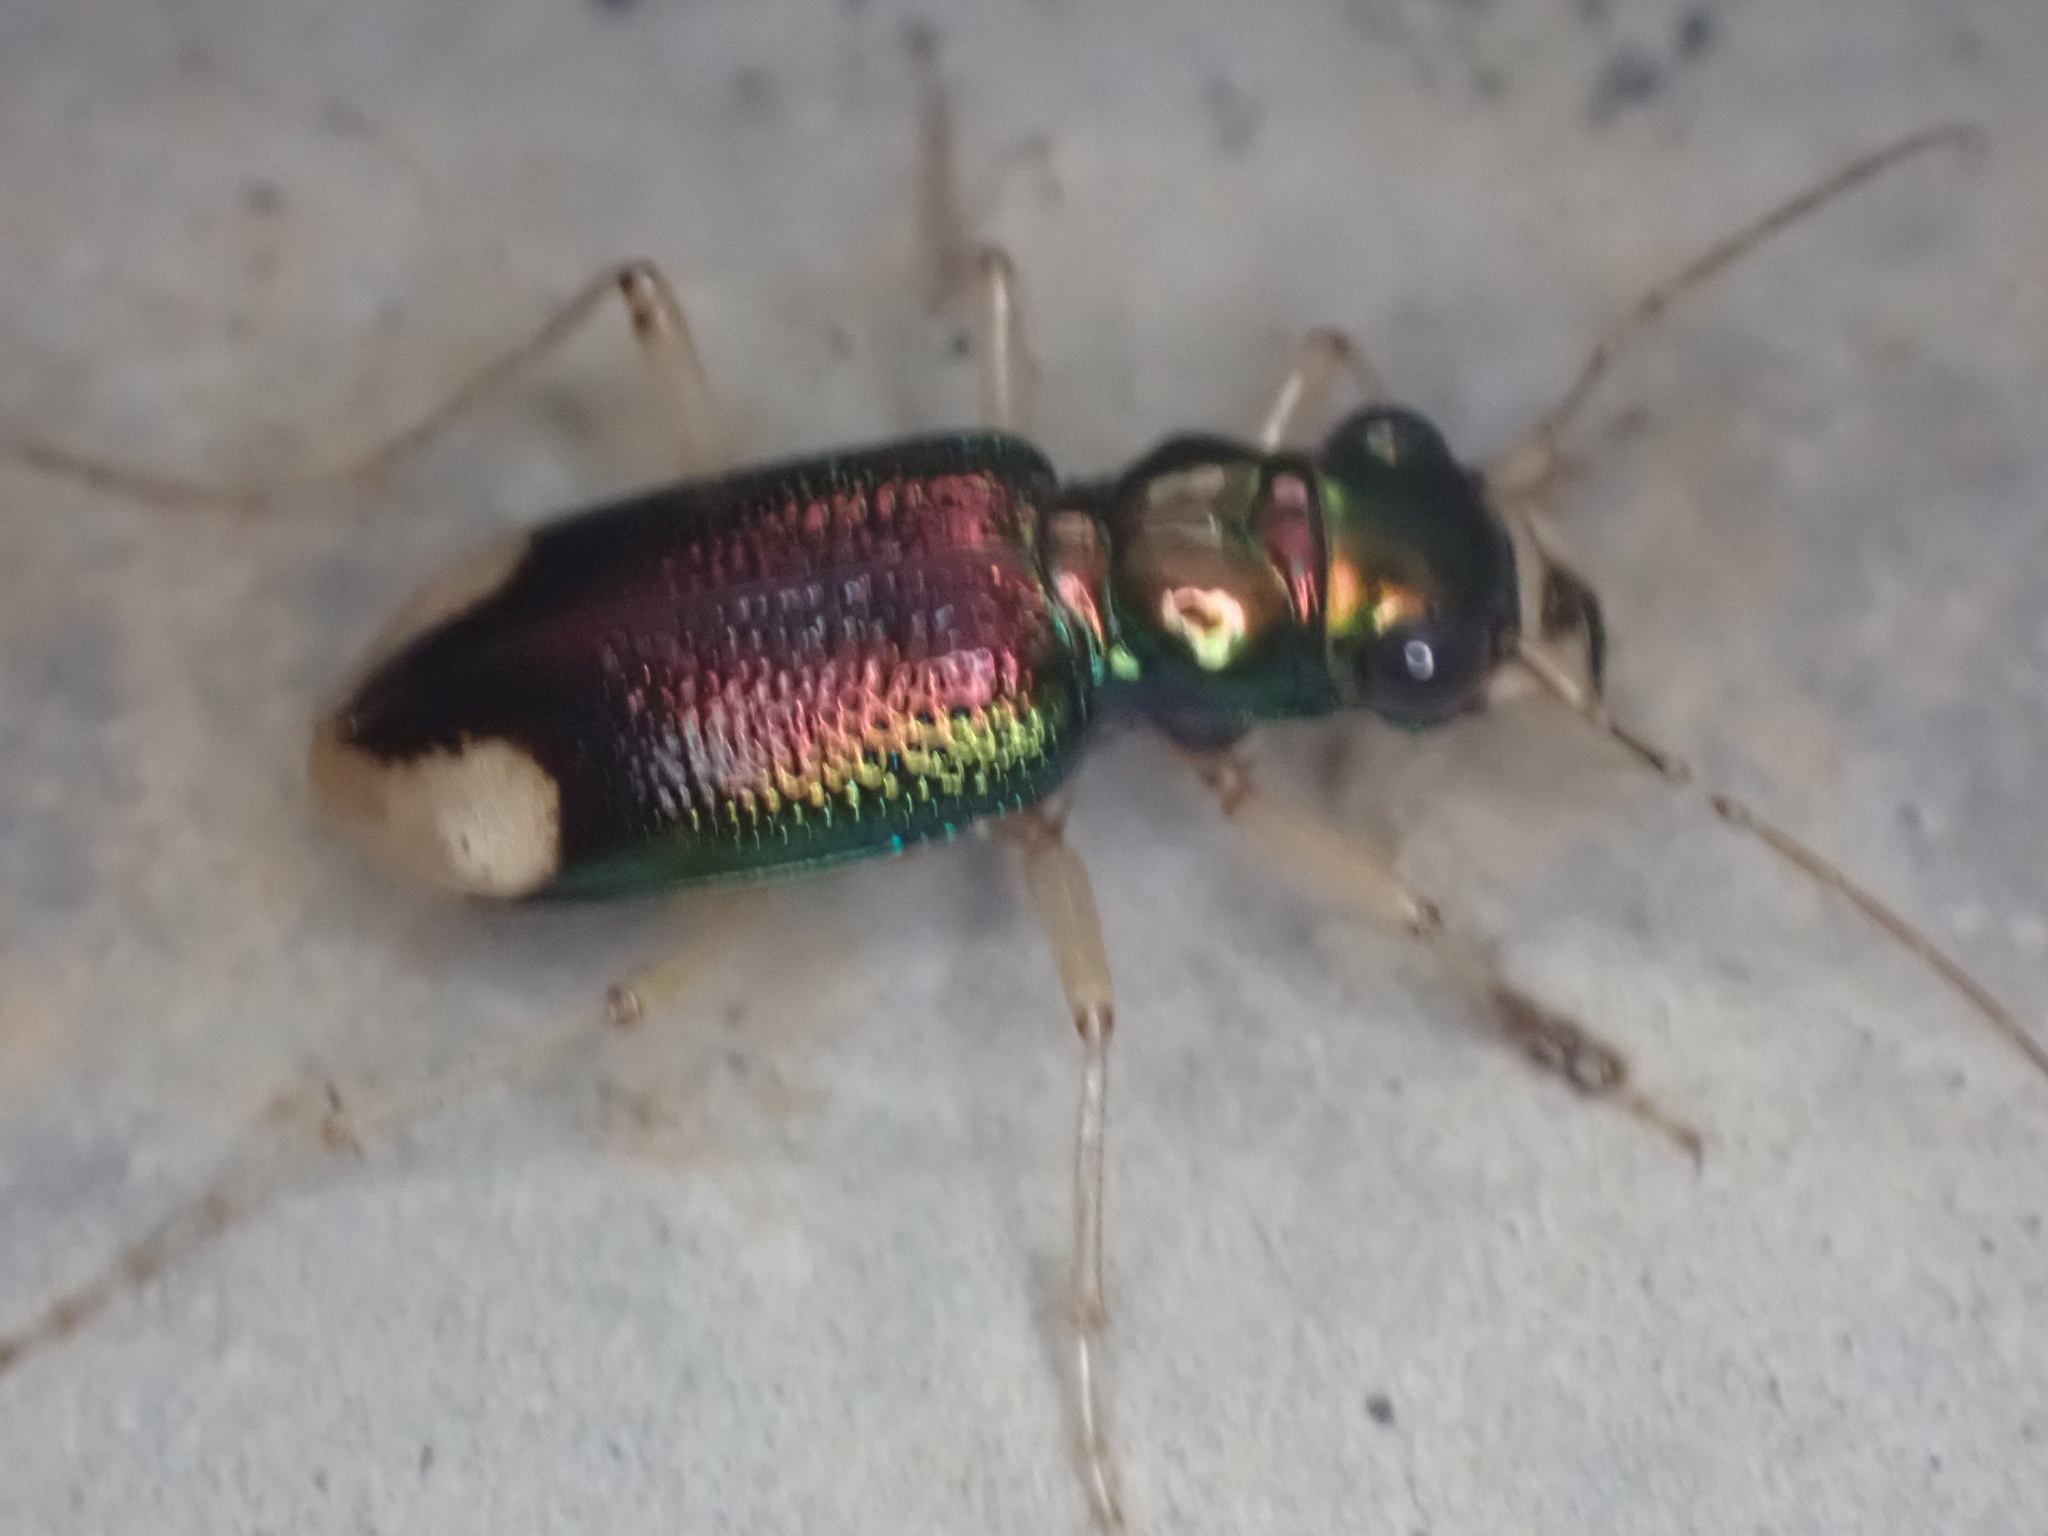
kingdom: Animalia
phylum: Arthropoda
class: Insecta
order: Coleoptera
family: Carabidae
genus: Tetracha
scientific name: Tetracha carolina
